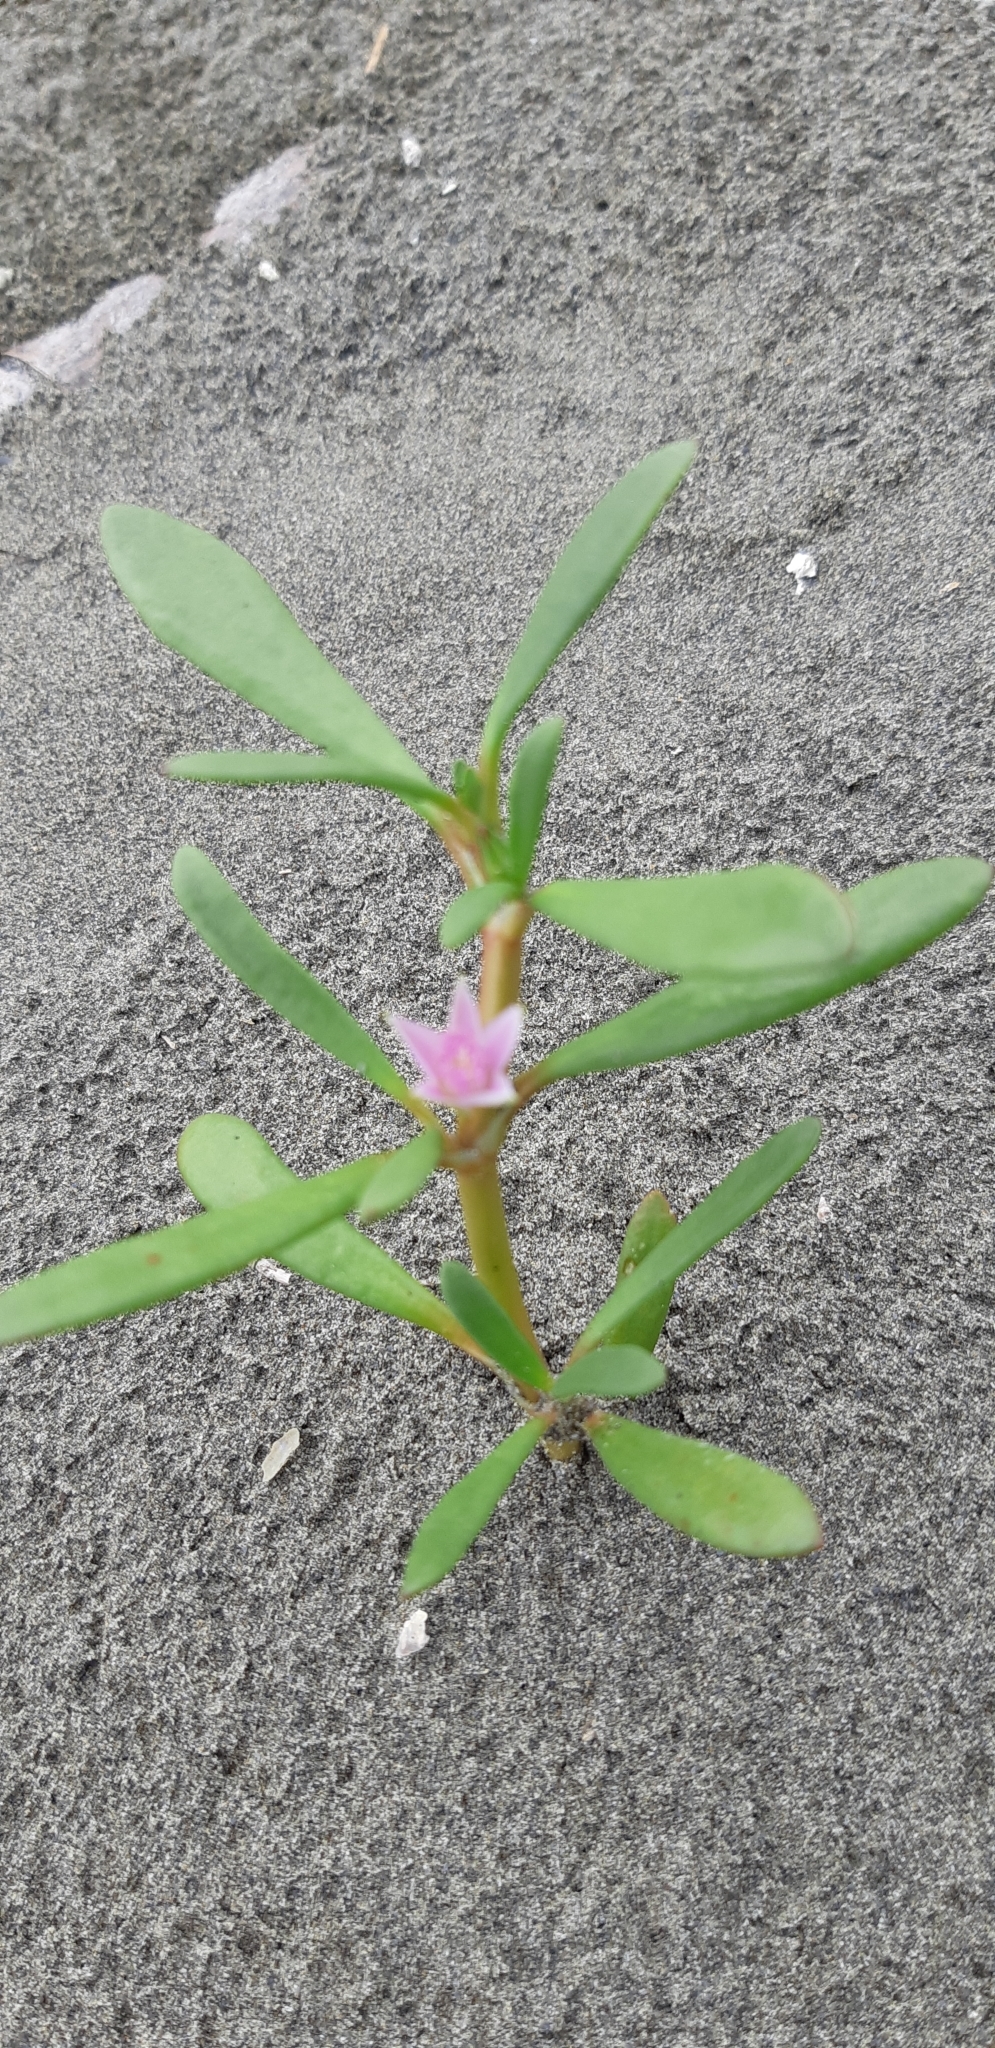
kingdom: Plantae
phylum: Tracheophyta
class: Magnoliopsida
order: Caryophyllales
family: Aizoaceae
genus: Sesuvium
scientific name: Sesuvium portulacastrum
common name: Sea-purslane
